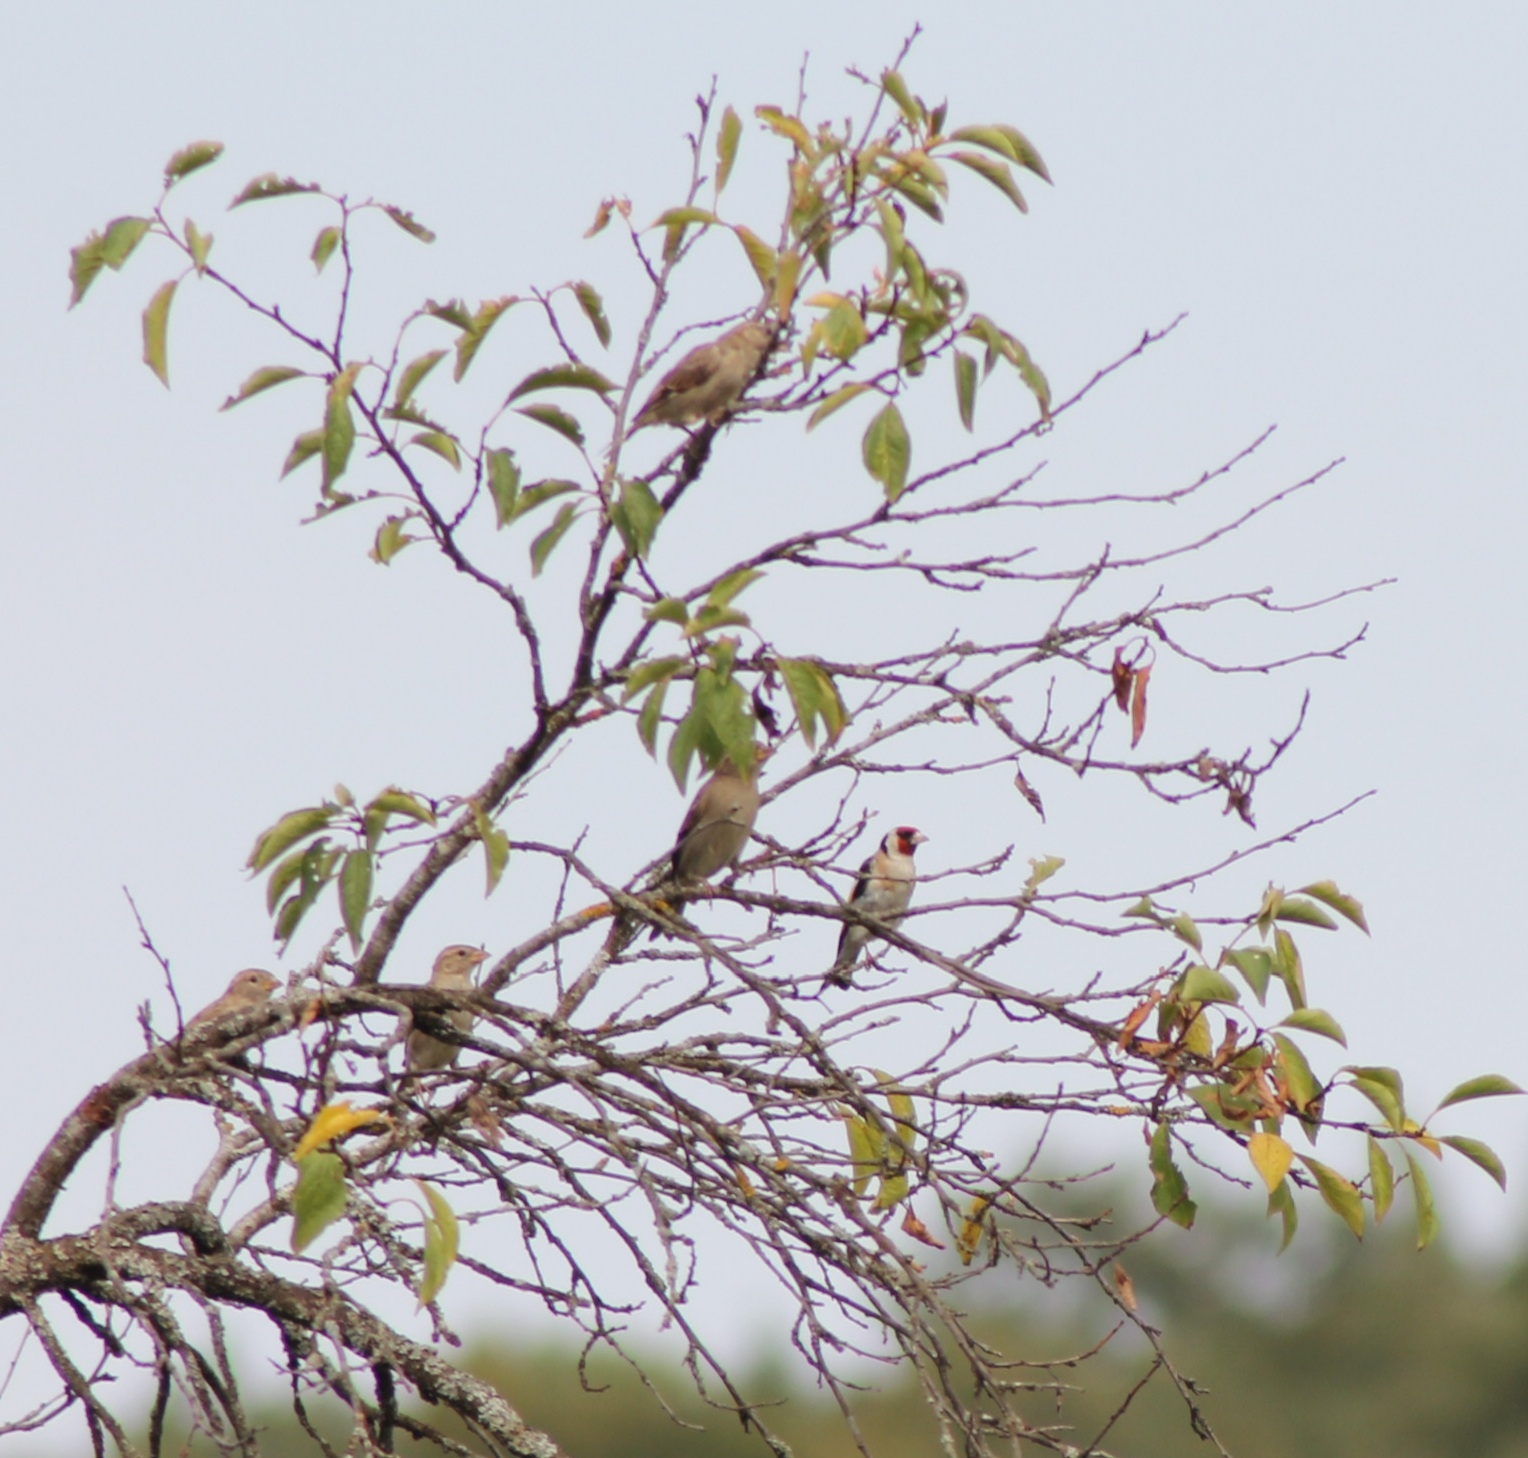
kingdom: Animalia
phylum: Chordata
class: Aves
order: Passeriformes
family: Fringillidae
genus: Carduelis
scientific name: Carduelis carduelis
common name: European goldfinch
